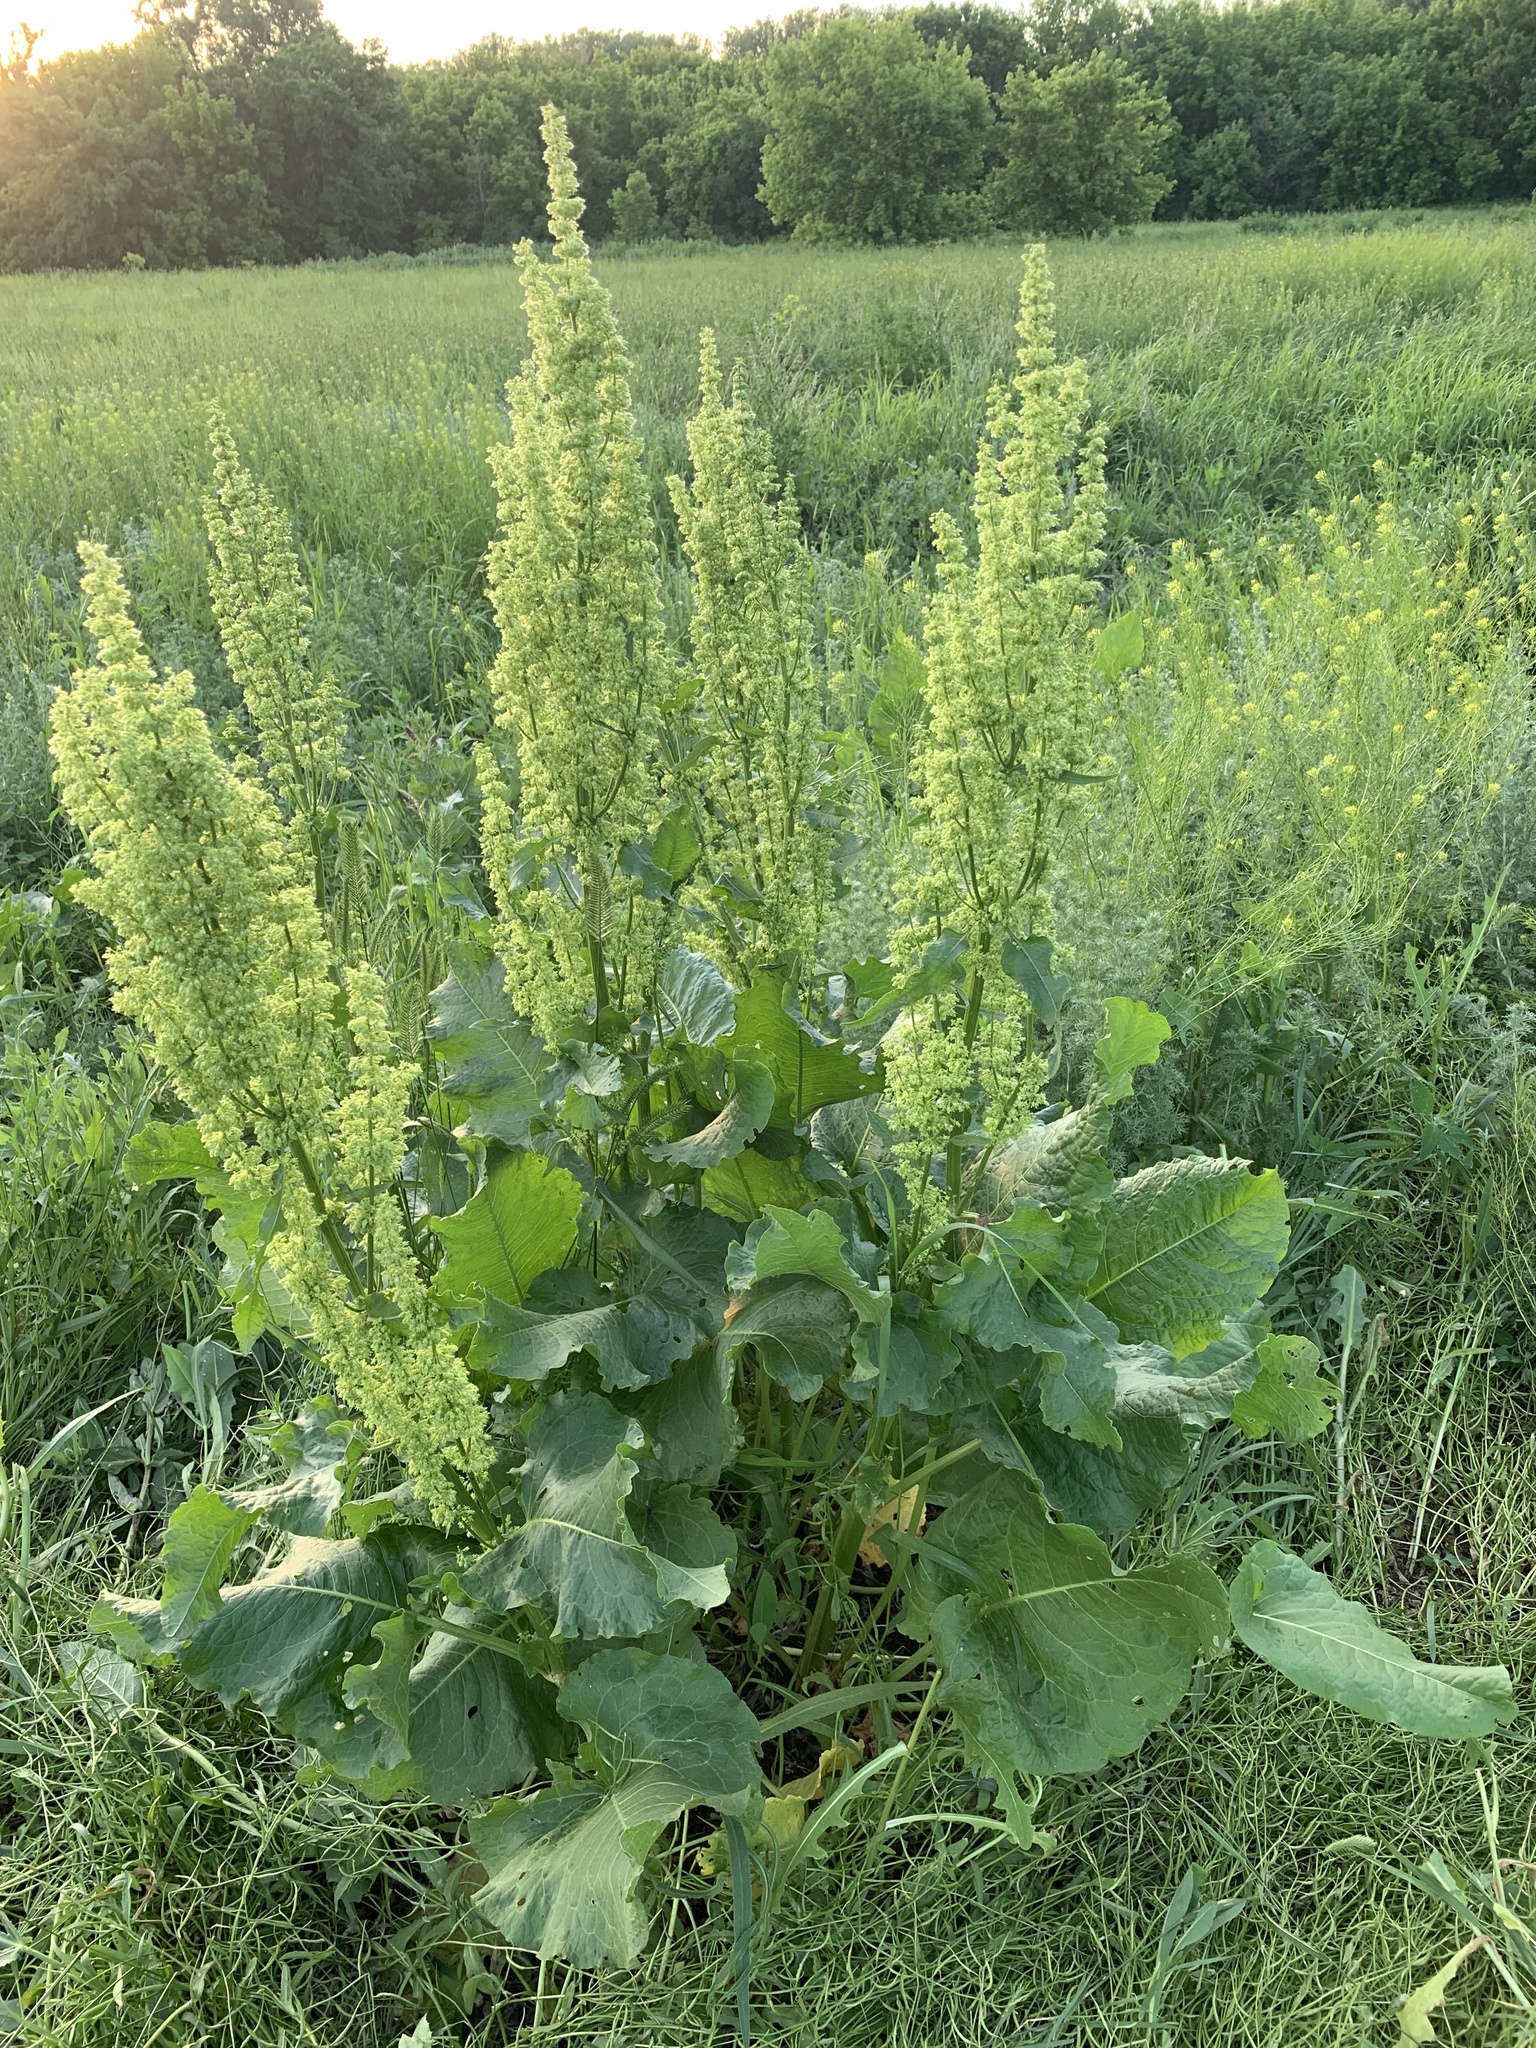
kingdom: Plantae
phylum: Tracheophyta
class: Magnoliopsida
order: Caryophyllales
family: Polygonaceae
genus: Rumex
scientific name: Rumex confertus
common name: Russian dock
